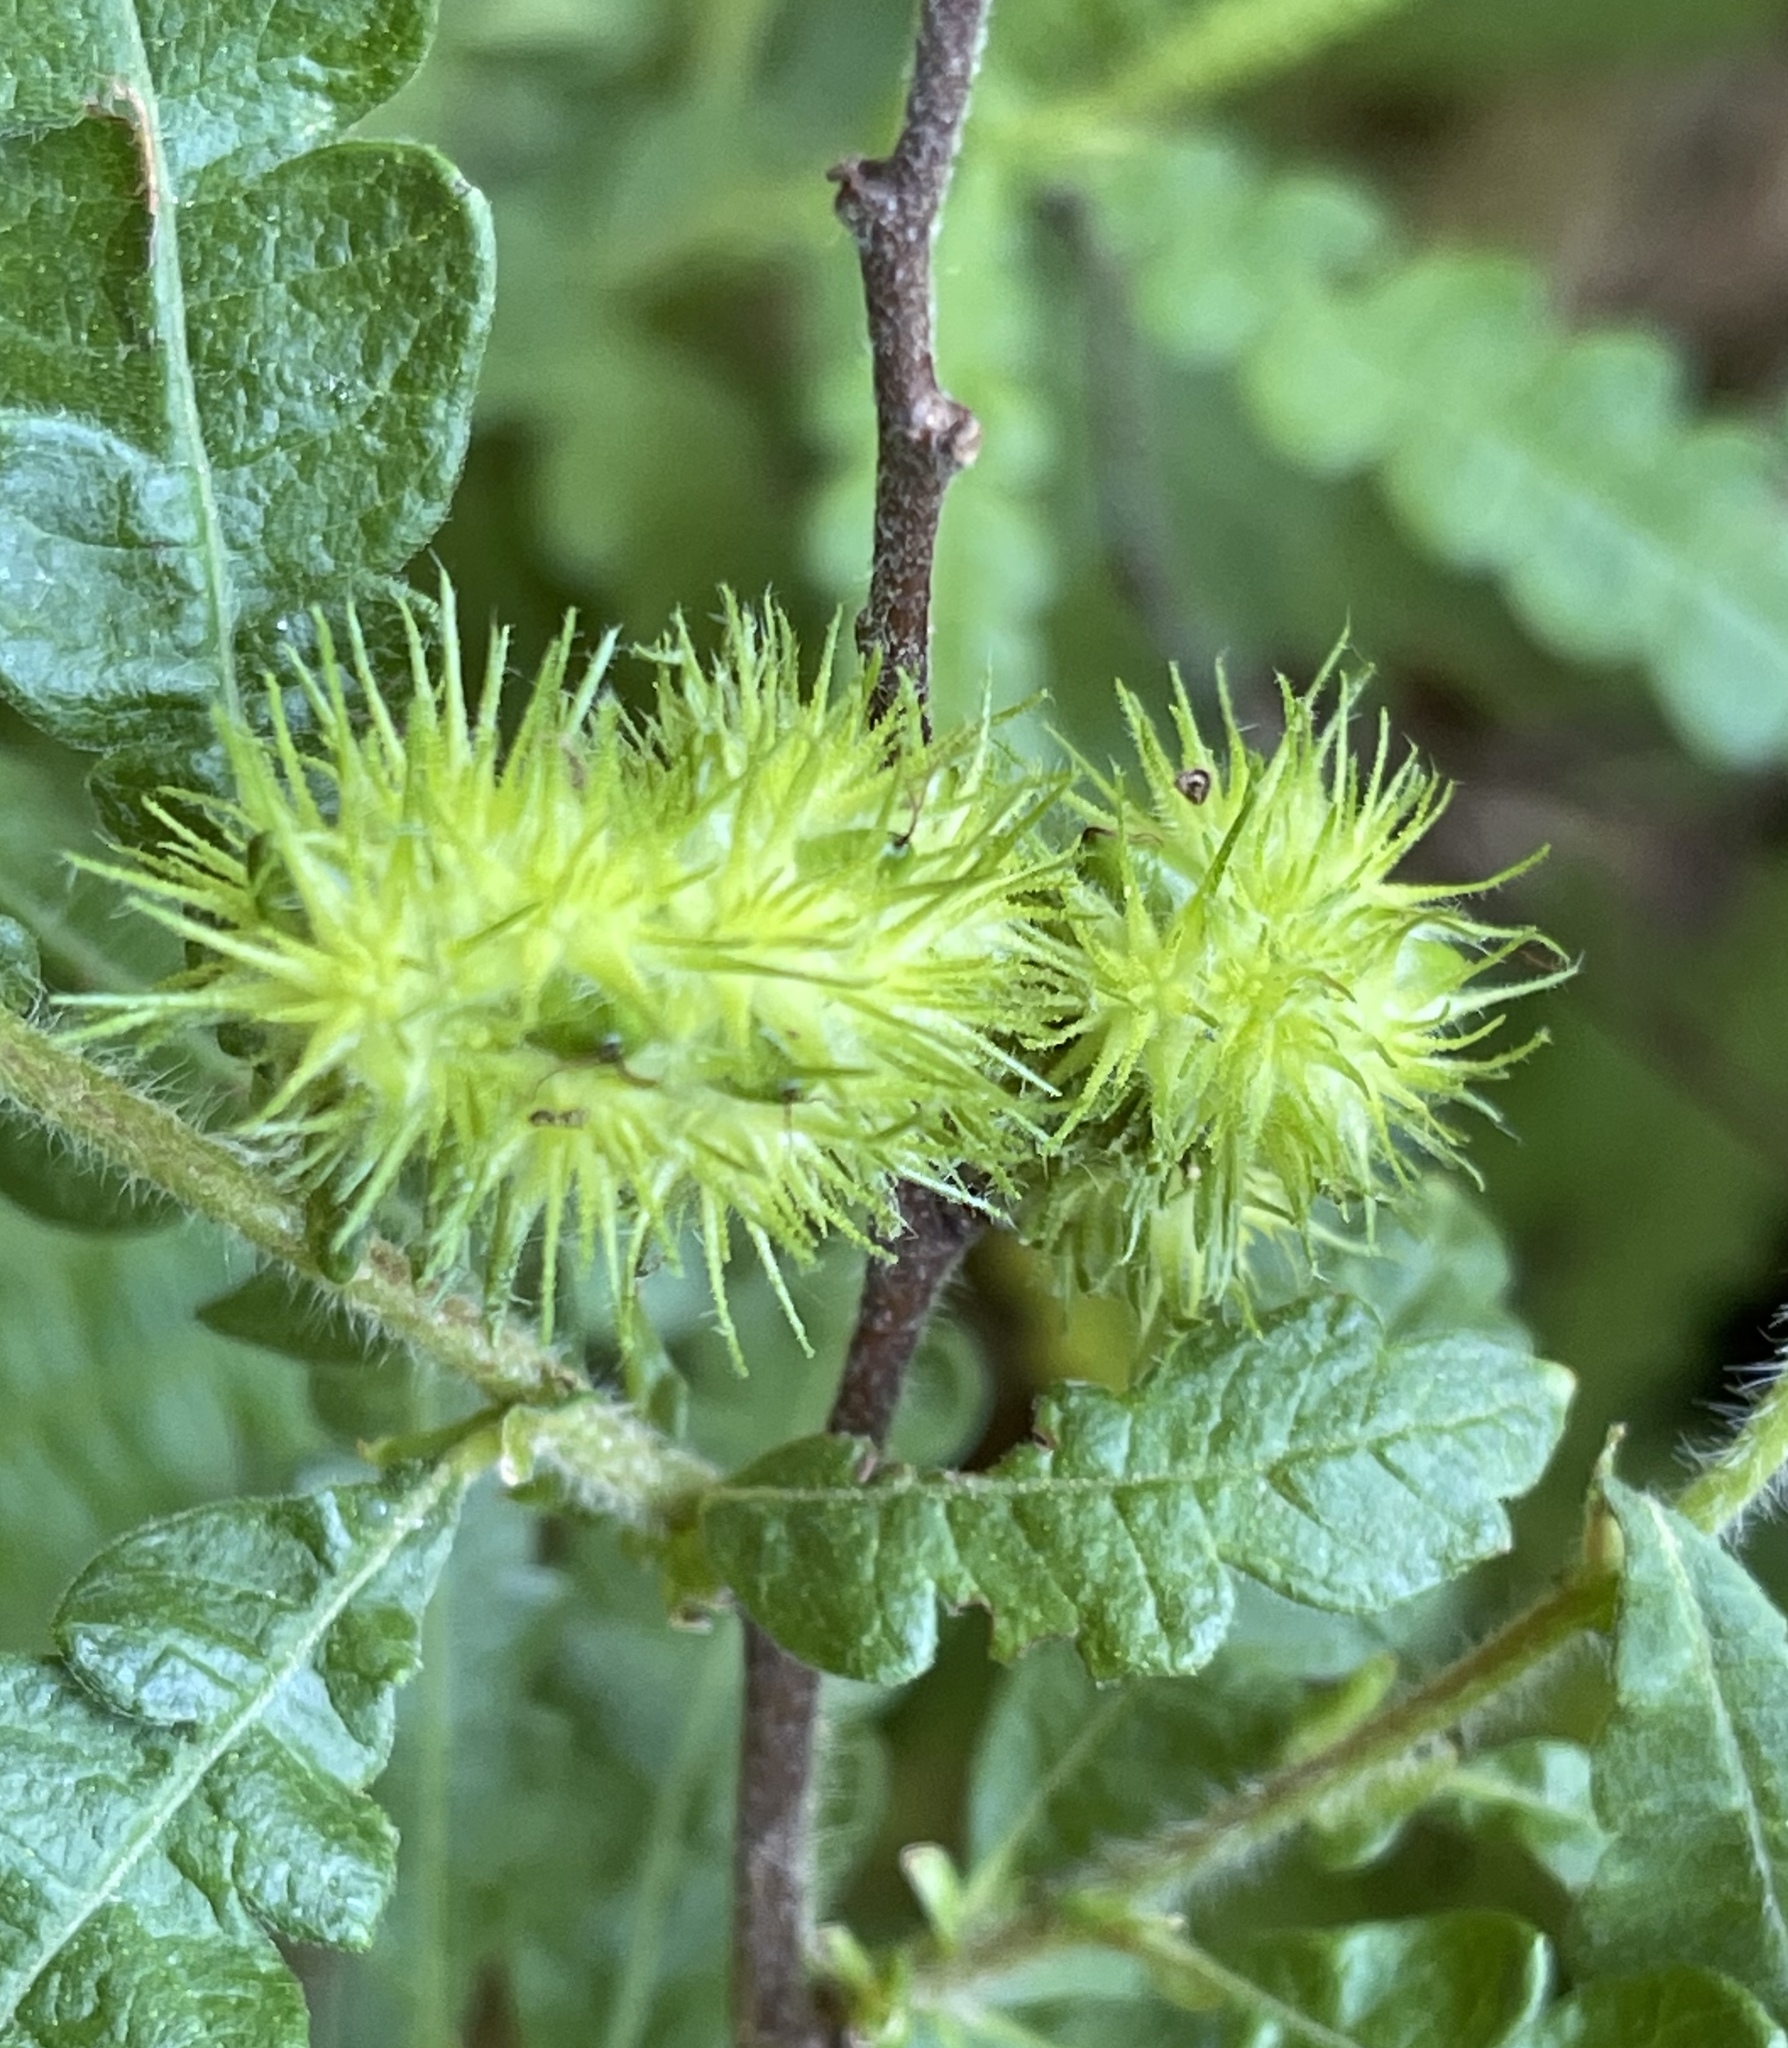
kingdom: Plantae
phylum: Tracheophyta
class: Magnoliopsida
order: Fagales
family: Myricaceae
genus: Comptonia
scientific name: Comptonia peregrina
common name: Sweet-fern
